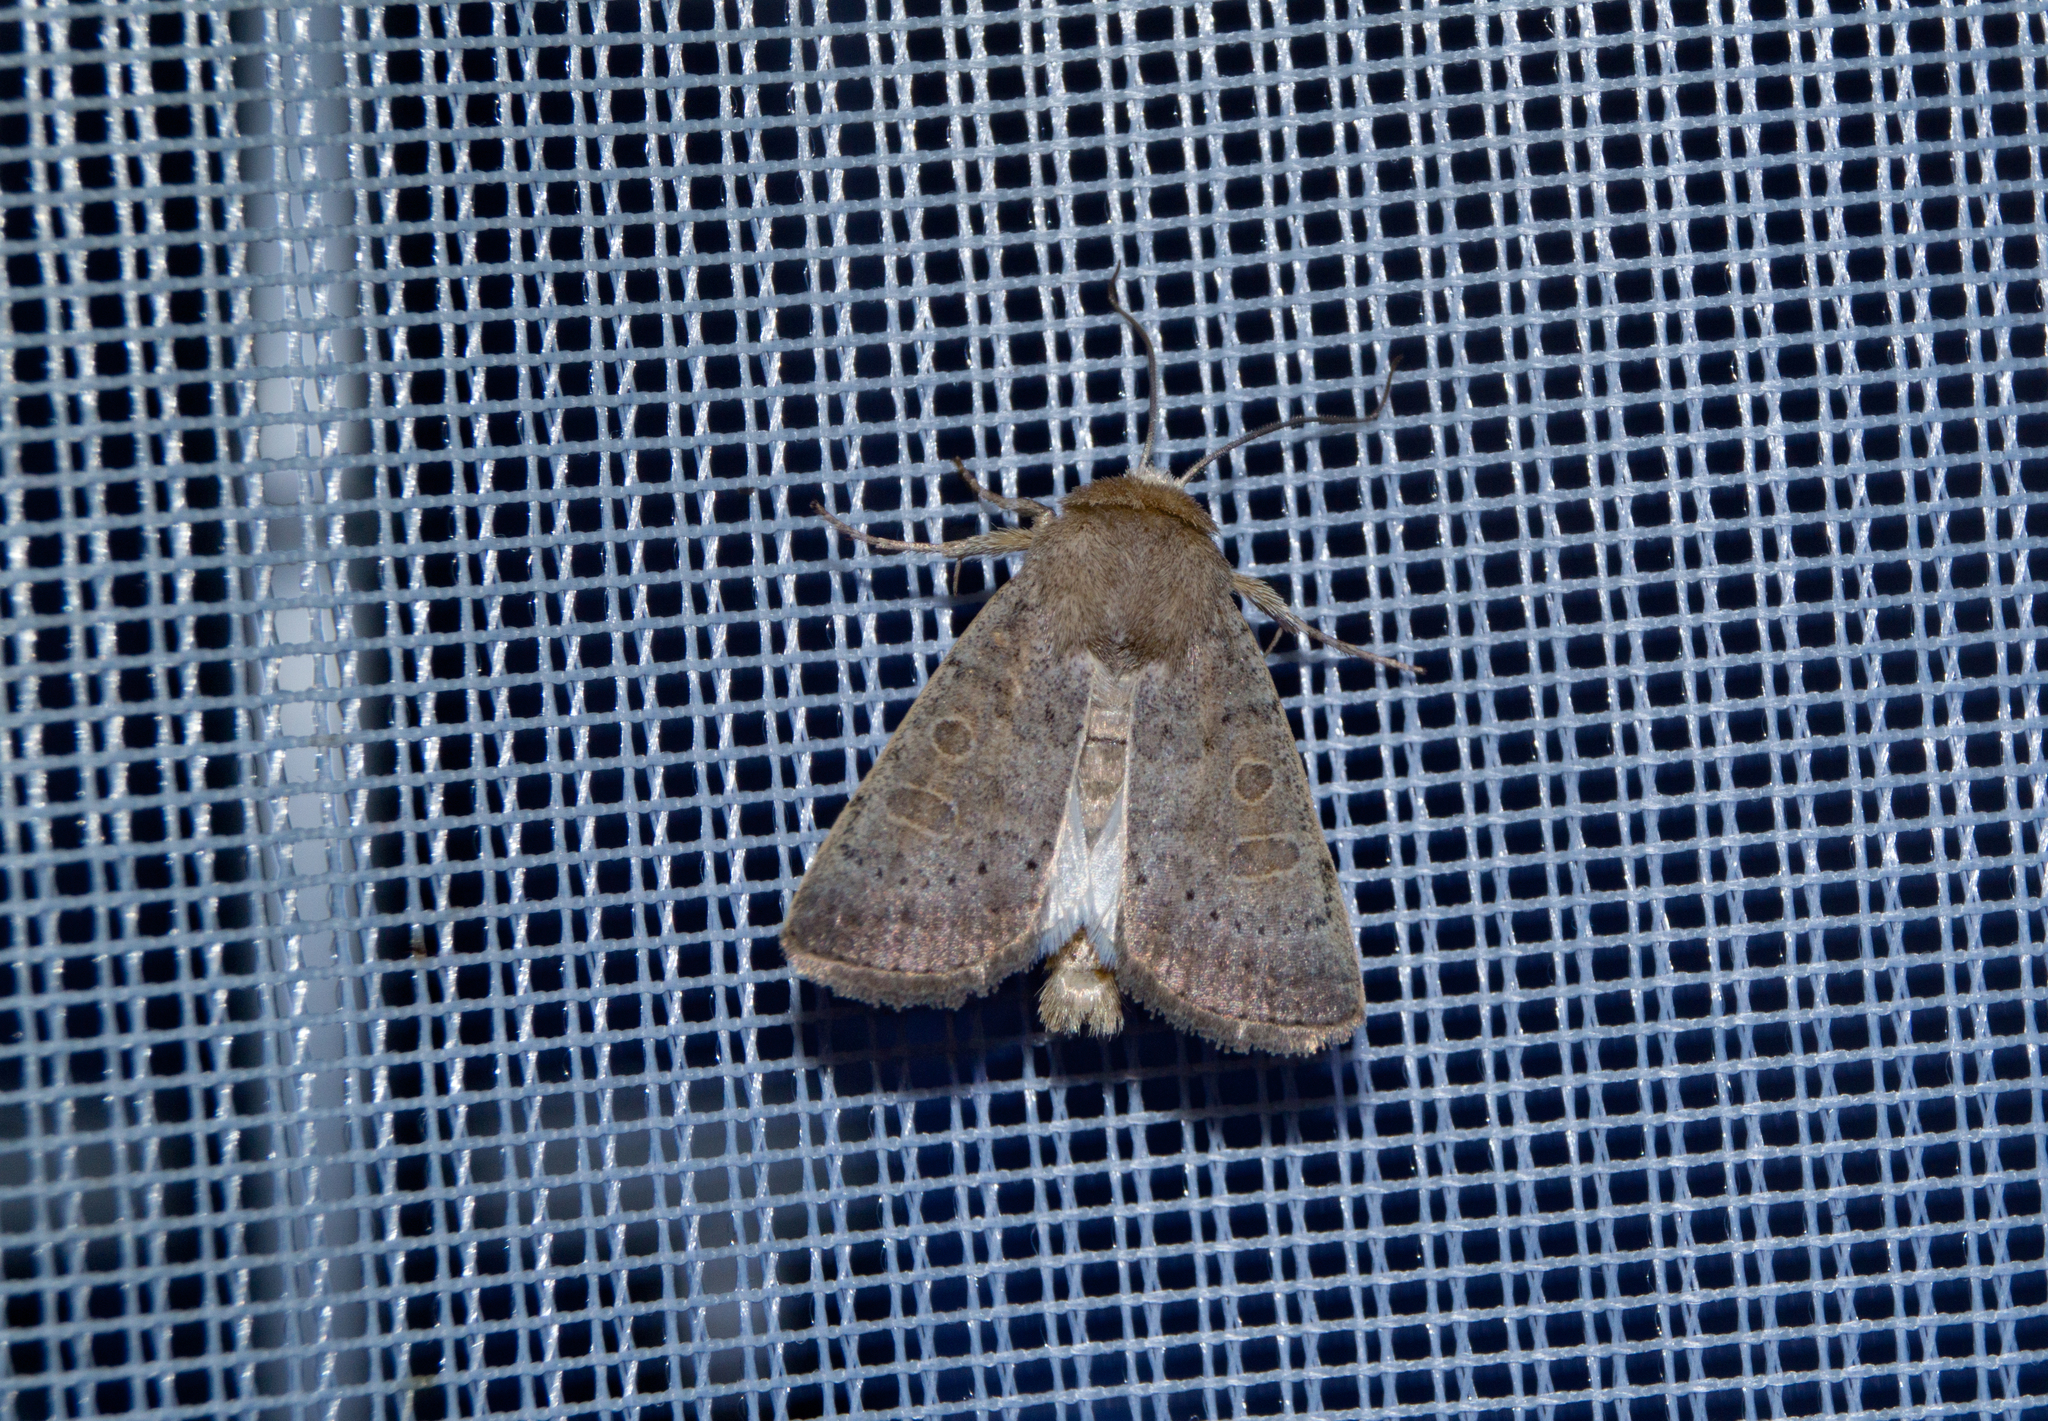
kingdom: Animalia
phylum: Arthropoda
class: Insecta
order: Lepidoptera
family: Noctuidae
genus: Hoplodrina
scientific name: Hoplodrina ambigua
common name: Vine's rustic
